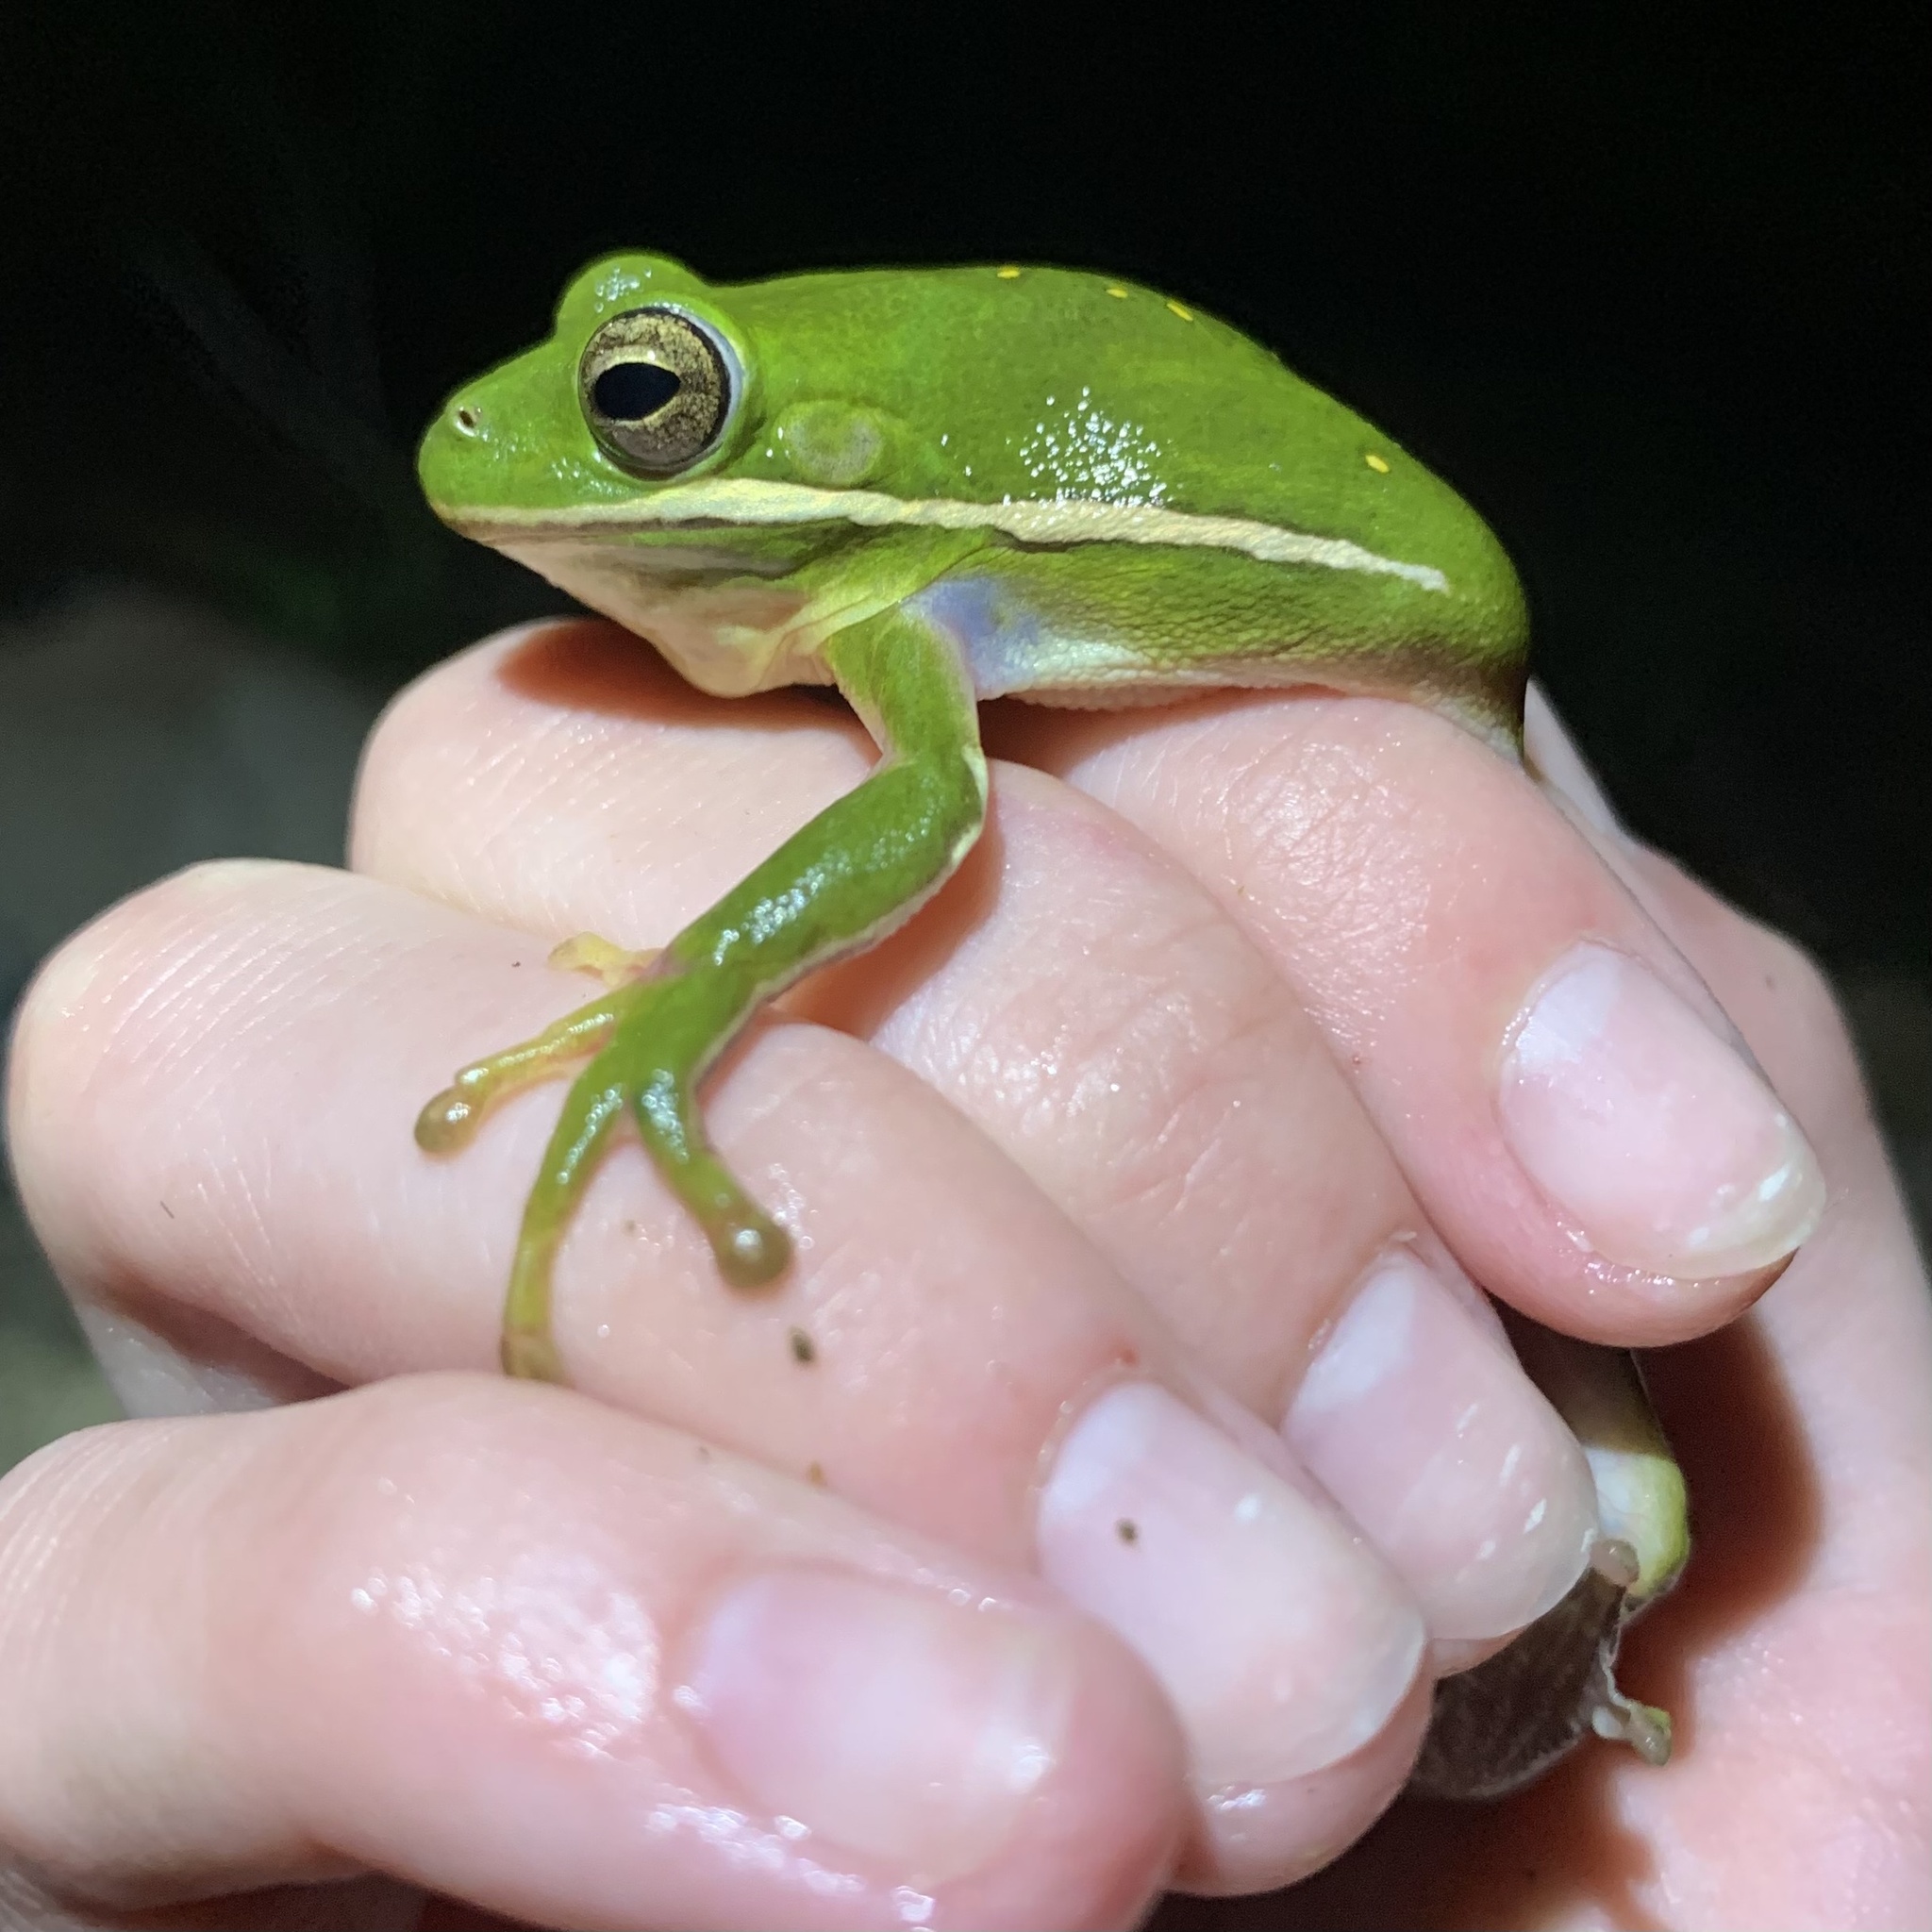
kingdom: Animalia
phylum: Chordata
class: Amphibia
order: Anura
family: Hylidae
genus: Dryophytes
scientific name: Dryophytes cinereus
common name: Green treefrog
